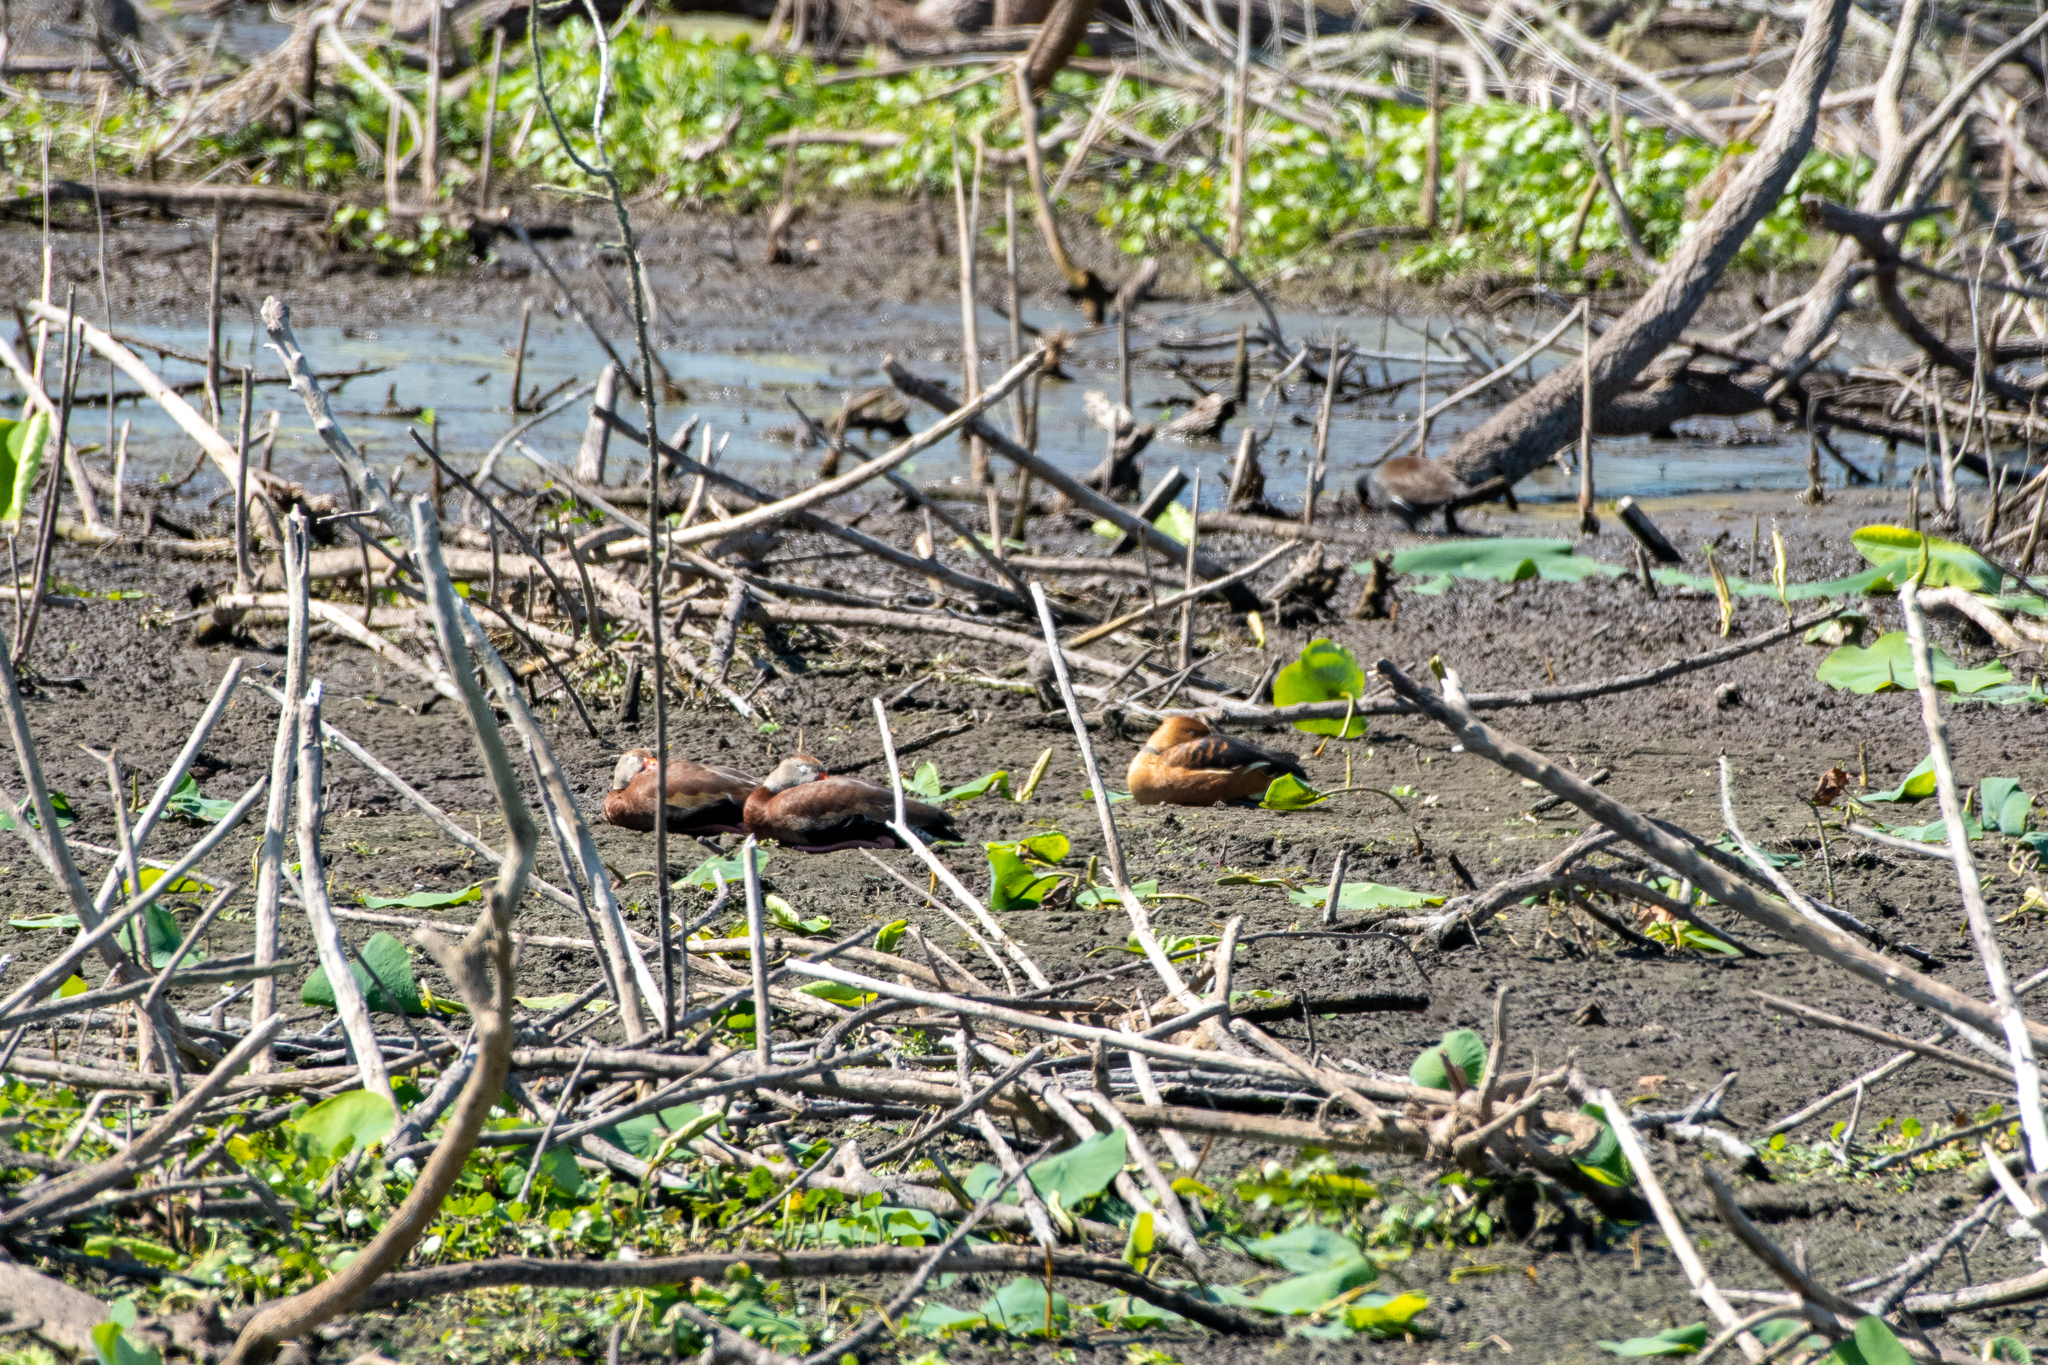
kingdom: Animalia
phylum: Chordata
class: Aves
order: Anseriformes
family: Anatidae
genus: Dendrocygna
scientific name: Dendrocygna bicolor
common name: Fulvous whistling duck
